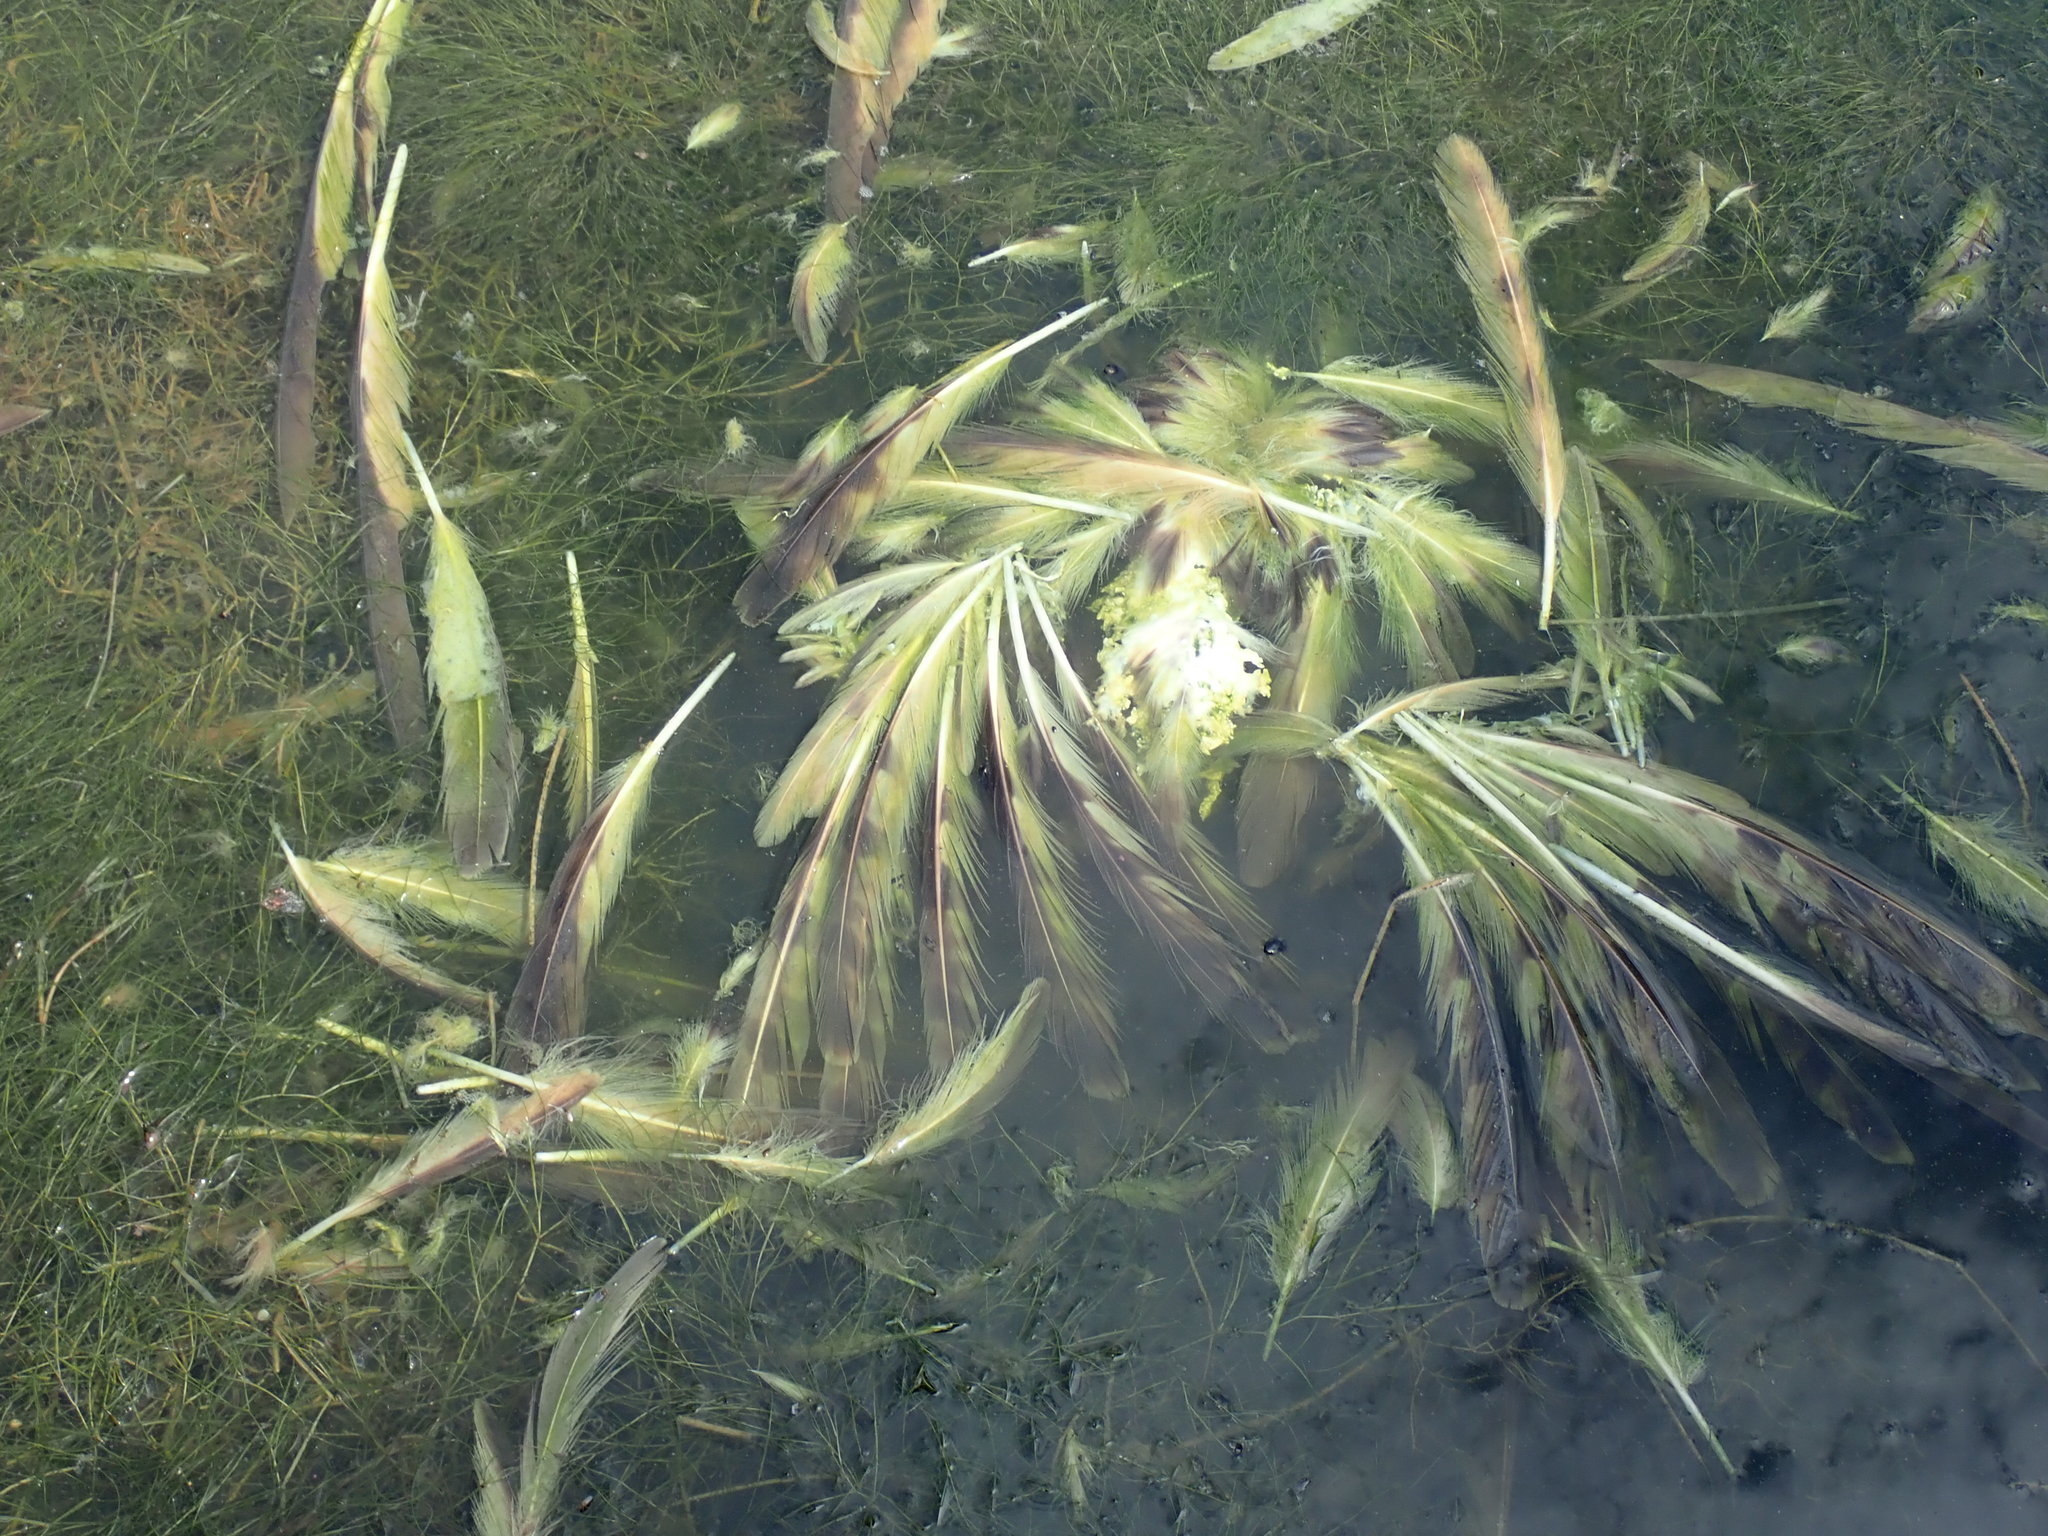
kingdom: Animalia
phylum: Chordata
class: Aves
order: Accipitriformes
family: Accipitridae
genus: Pernis
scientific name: Pernis apivorus
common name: European honey buzzard
